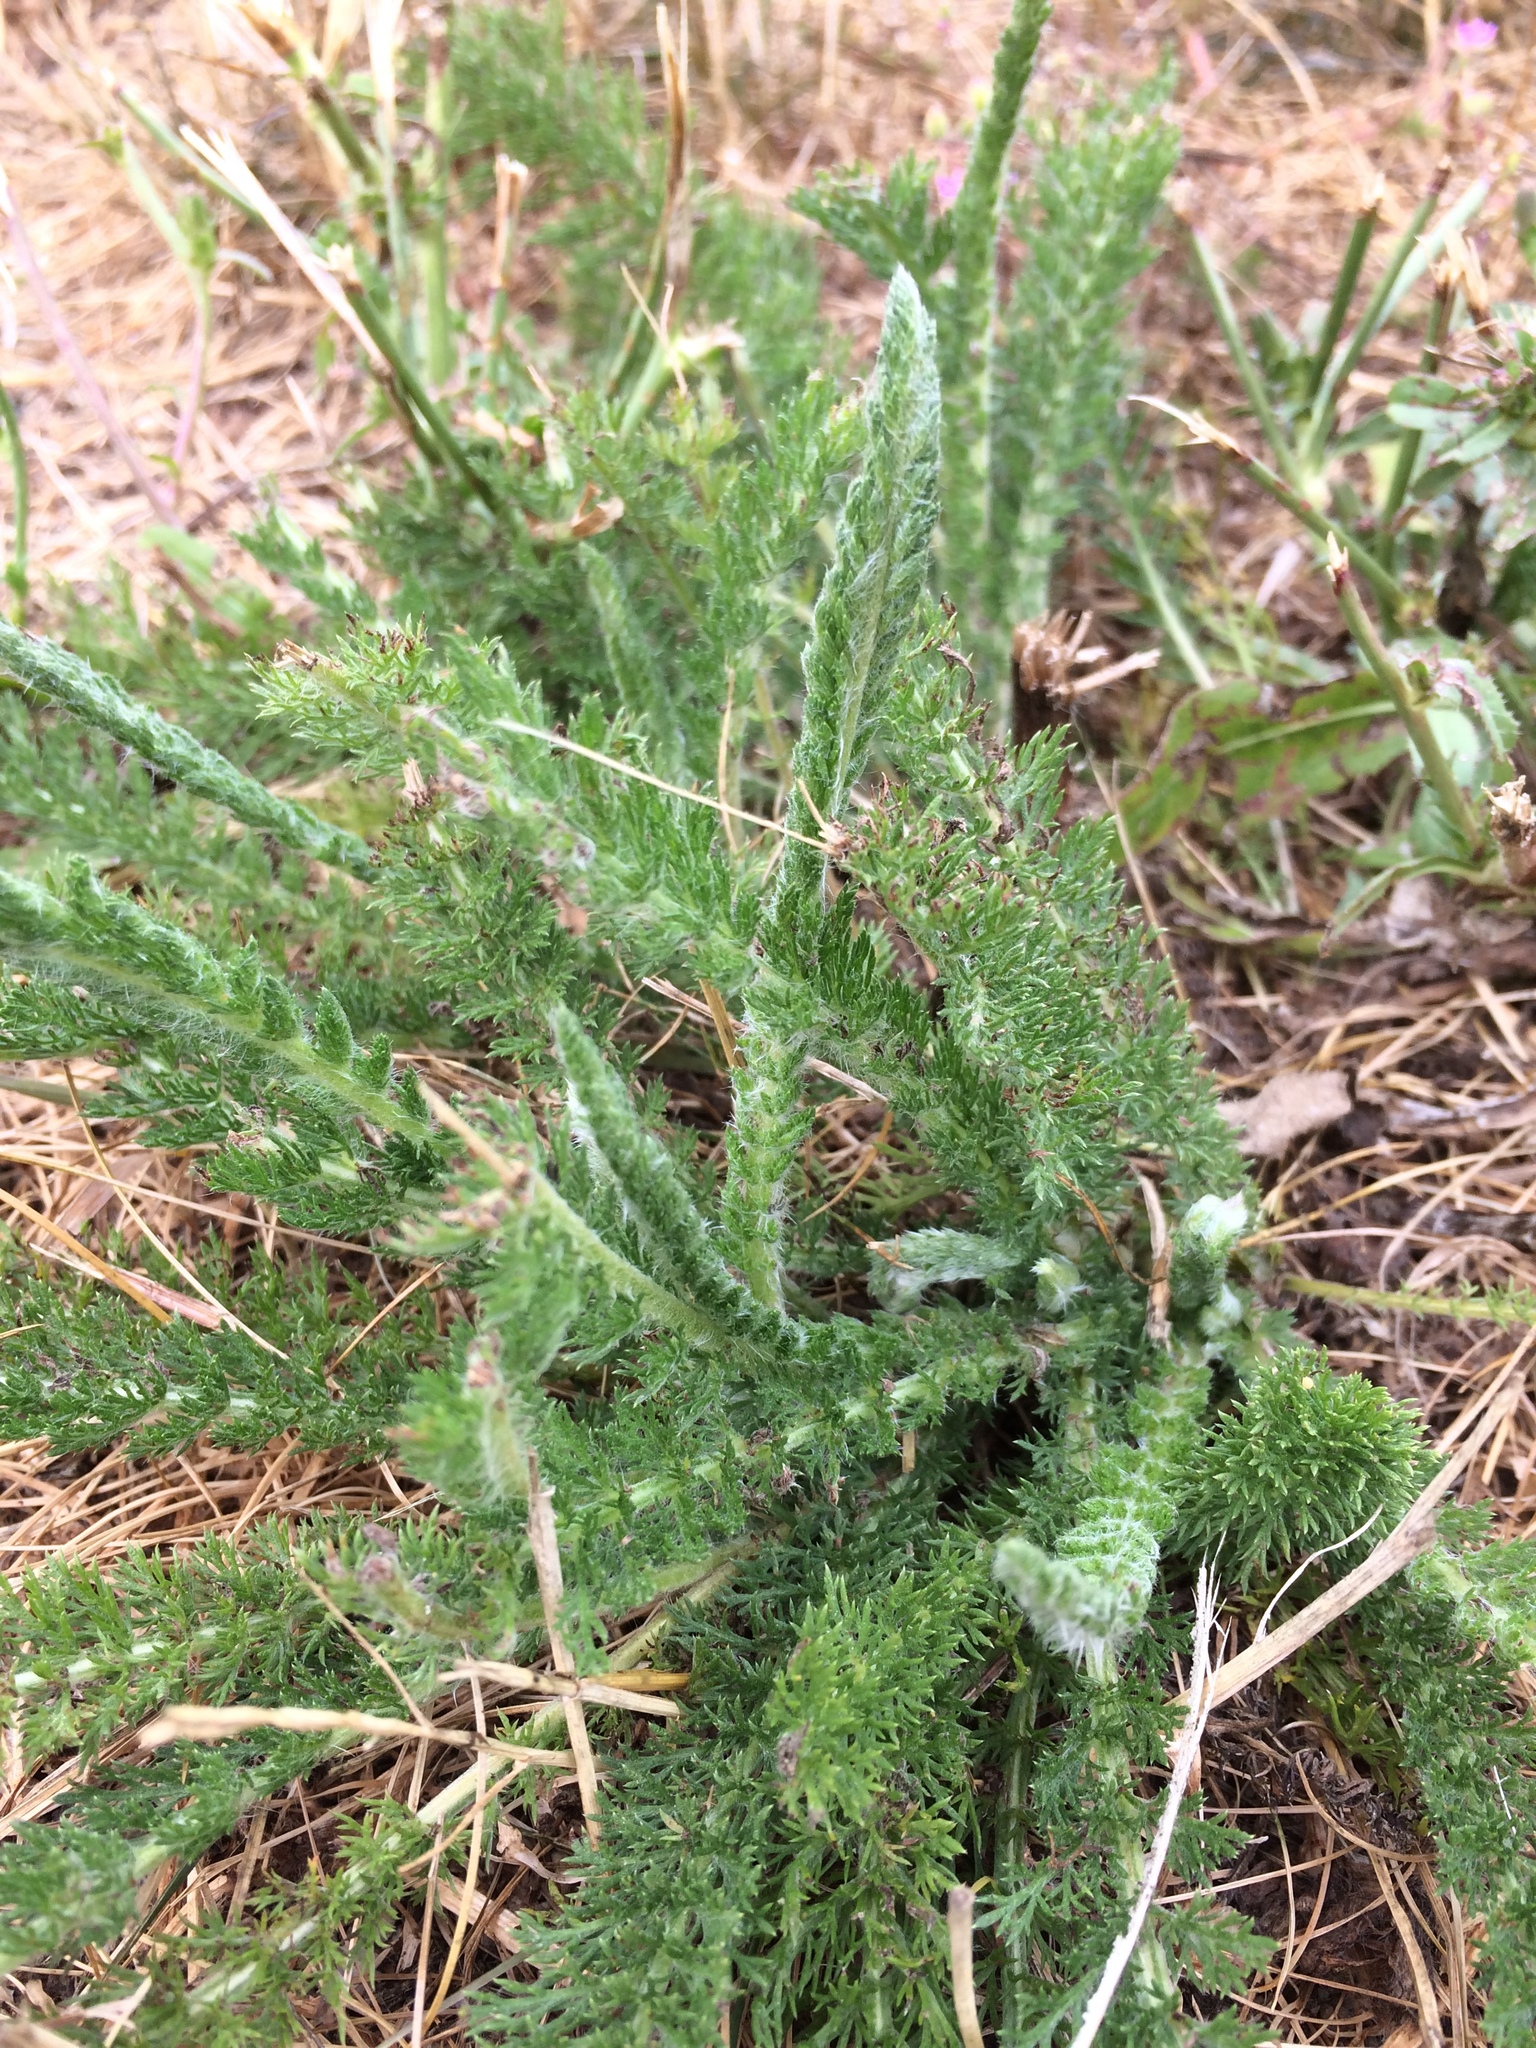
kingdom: Plantae
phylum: Tracheophyta
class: Magnoliopsida
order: Geraniales
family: Geraniaceae
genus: Erodium
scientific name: Erodium cicutarium
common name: Common stork's-bill
